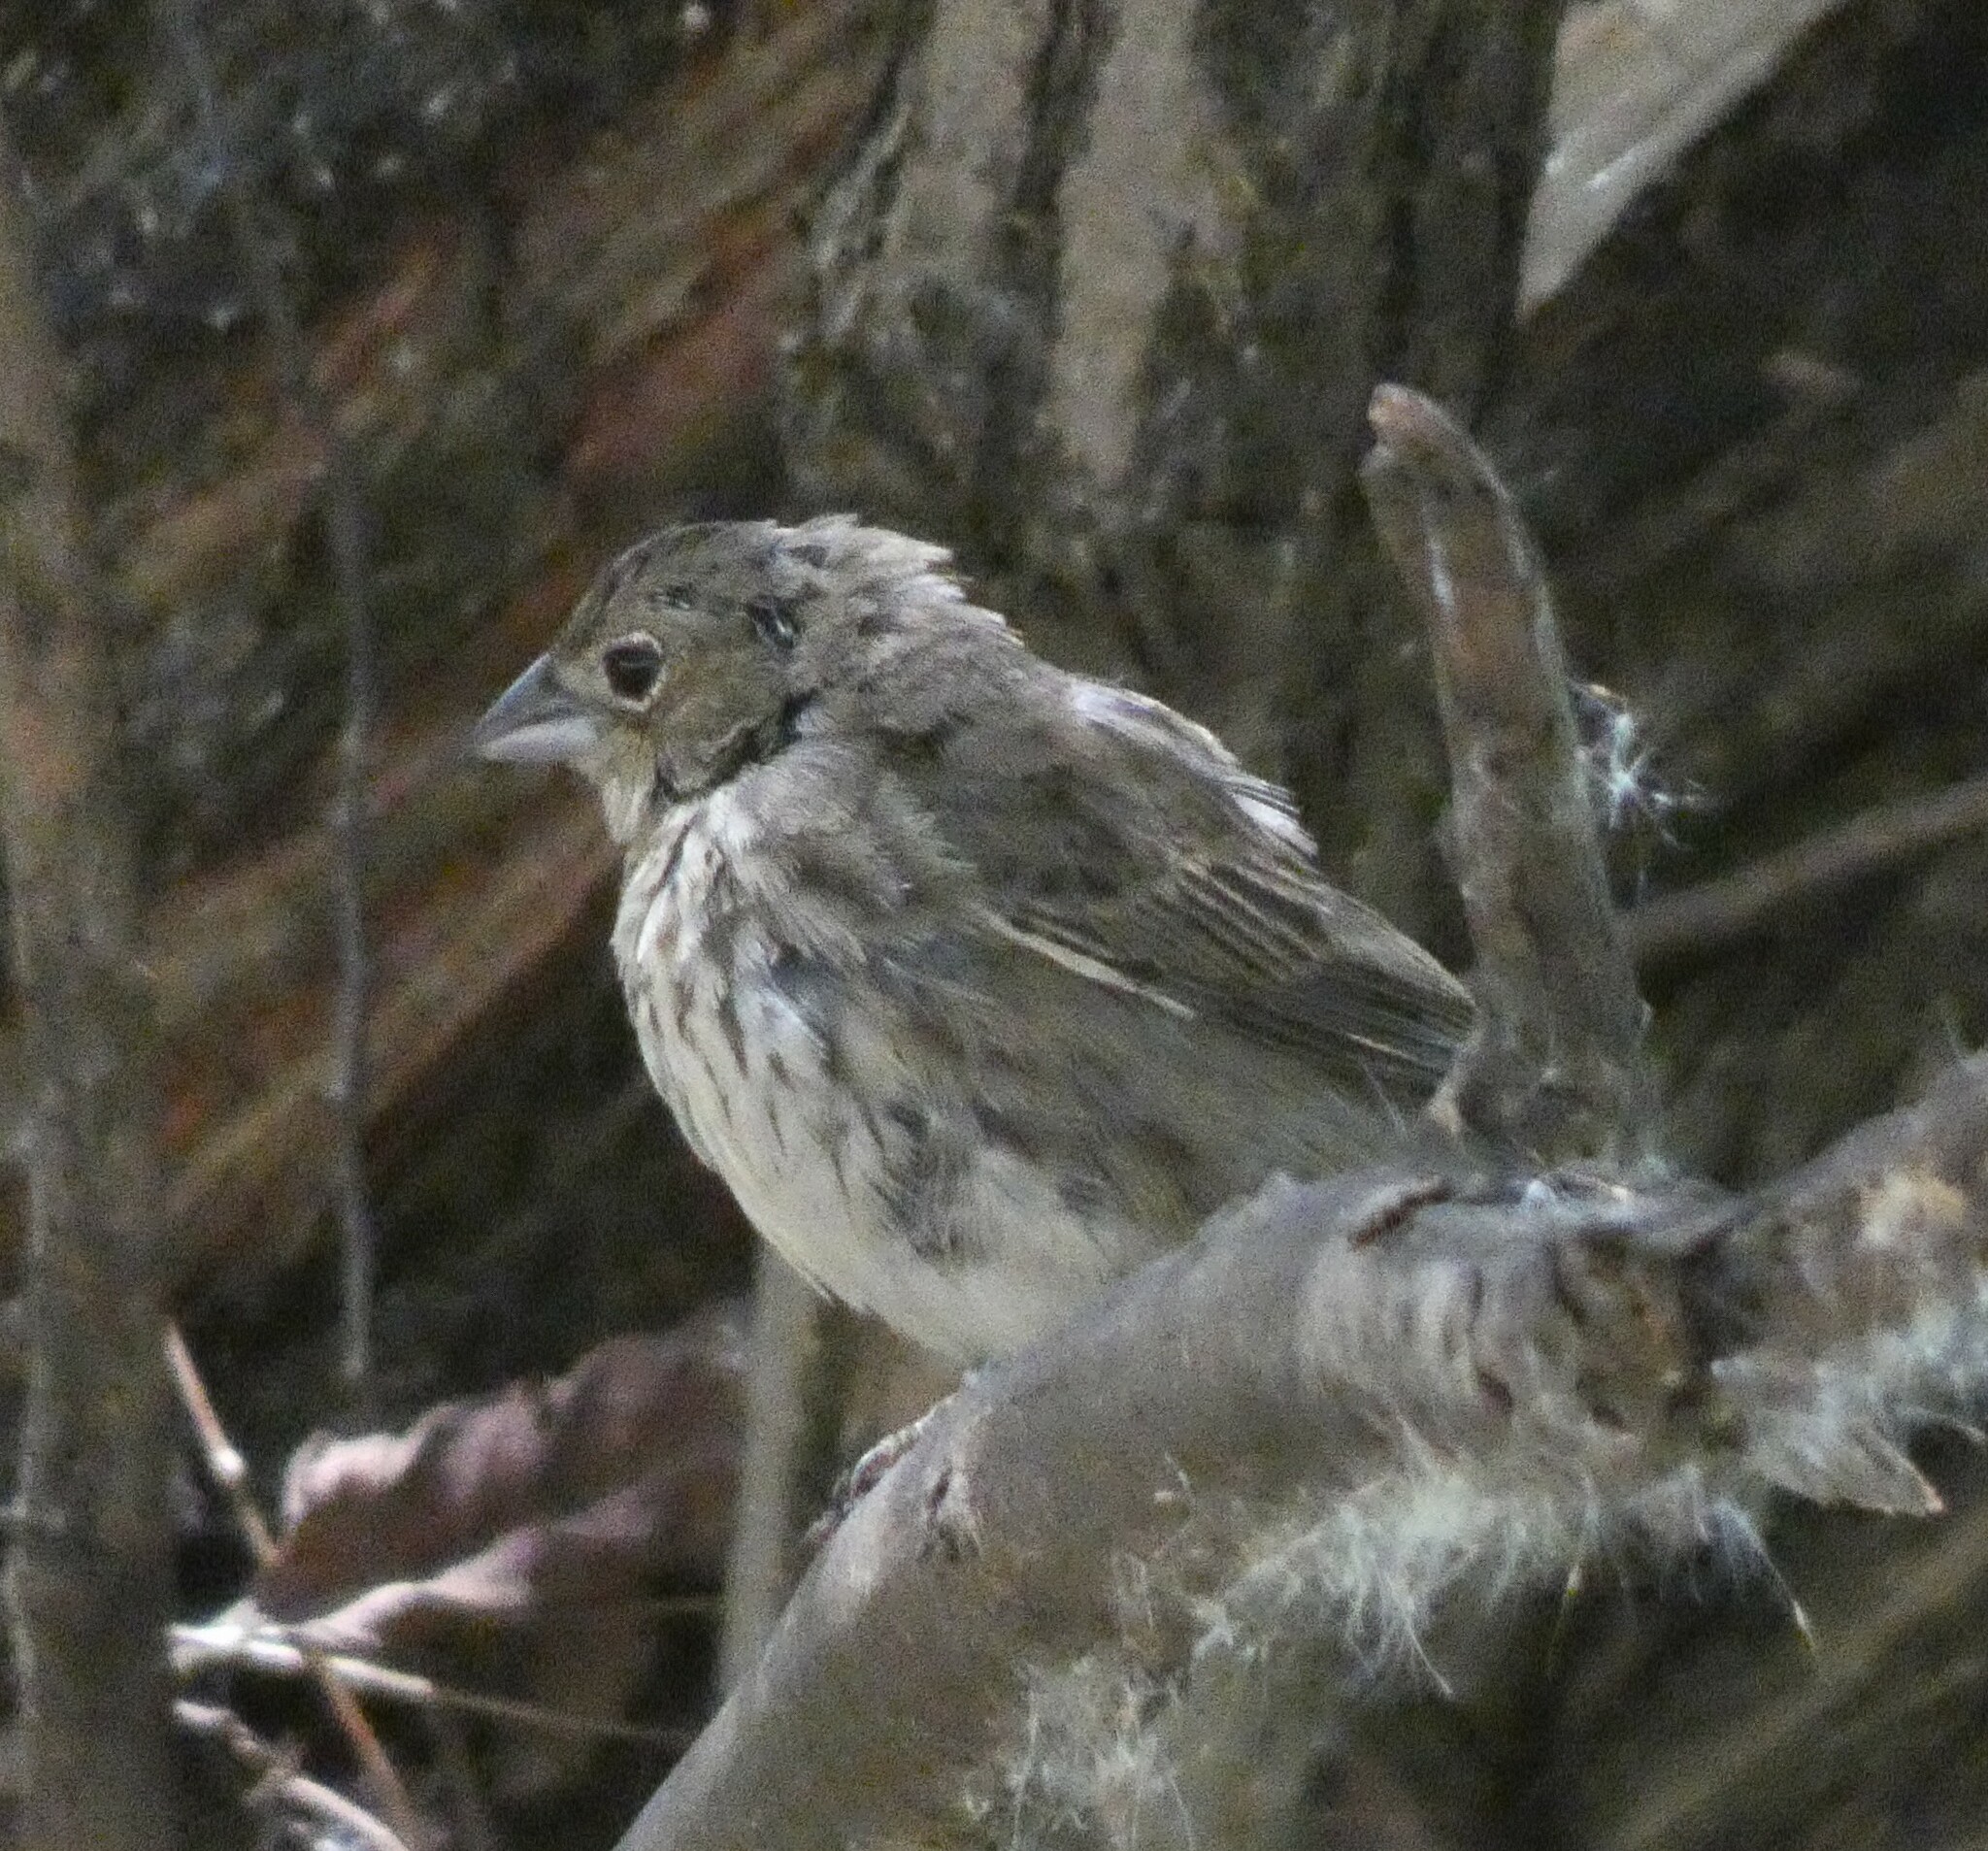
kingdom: Animalia
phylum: Chordata
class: Aves
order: Passeriformes
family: Thraupidae
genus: Volatinia
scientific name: Volatinia jacarina
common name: Blue-black grassquit
